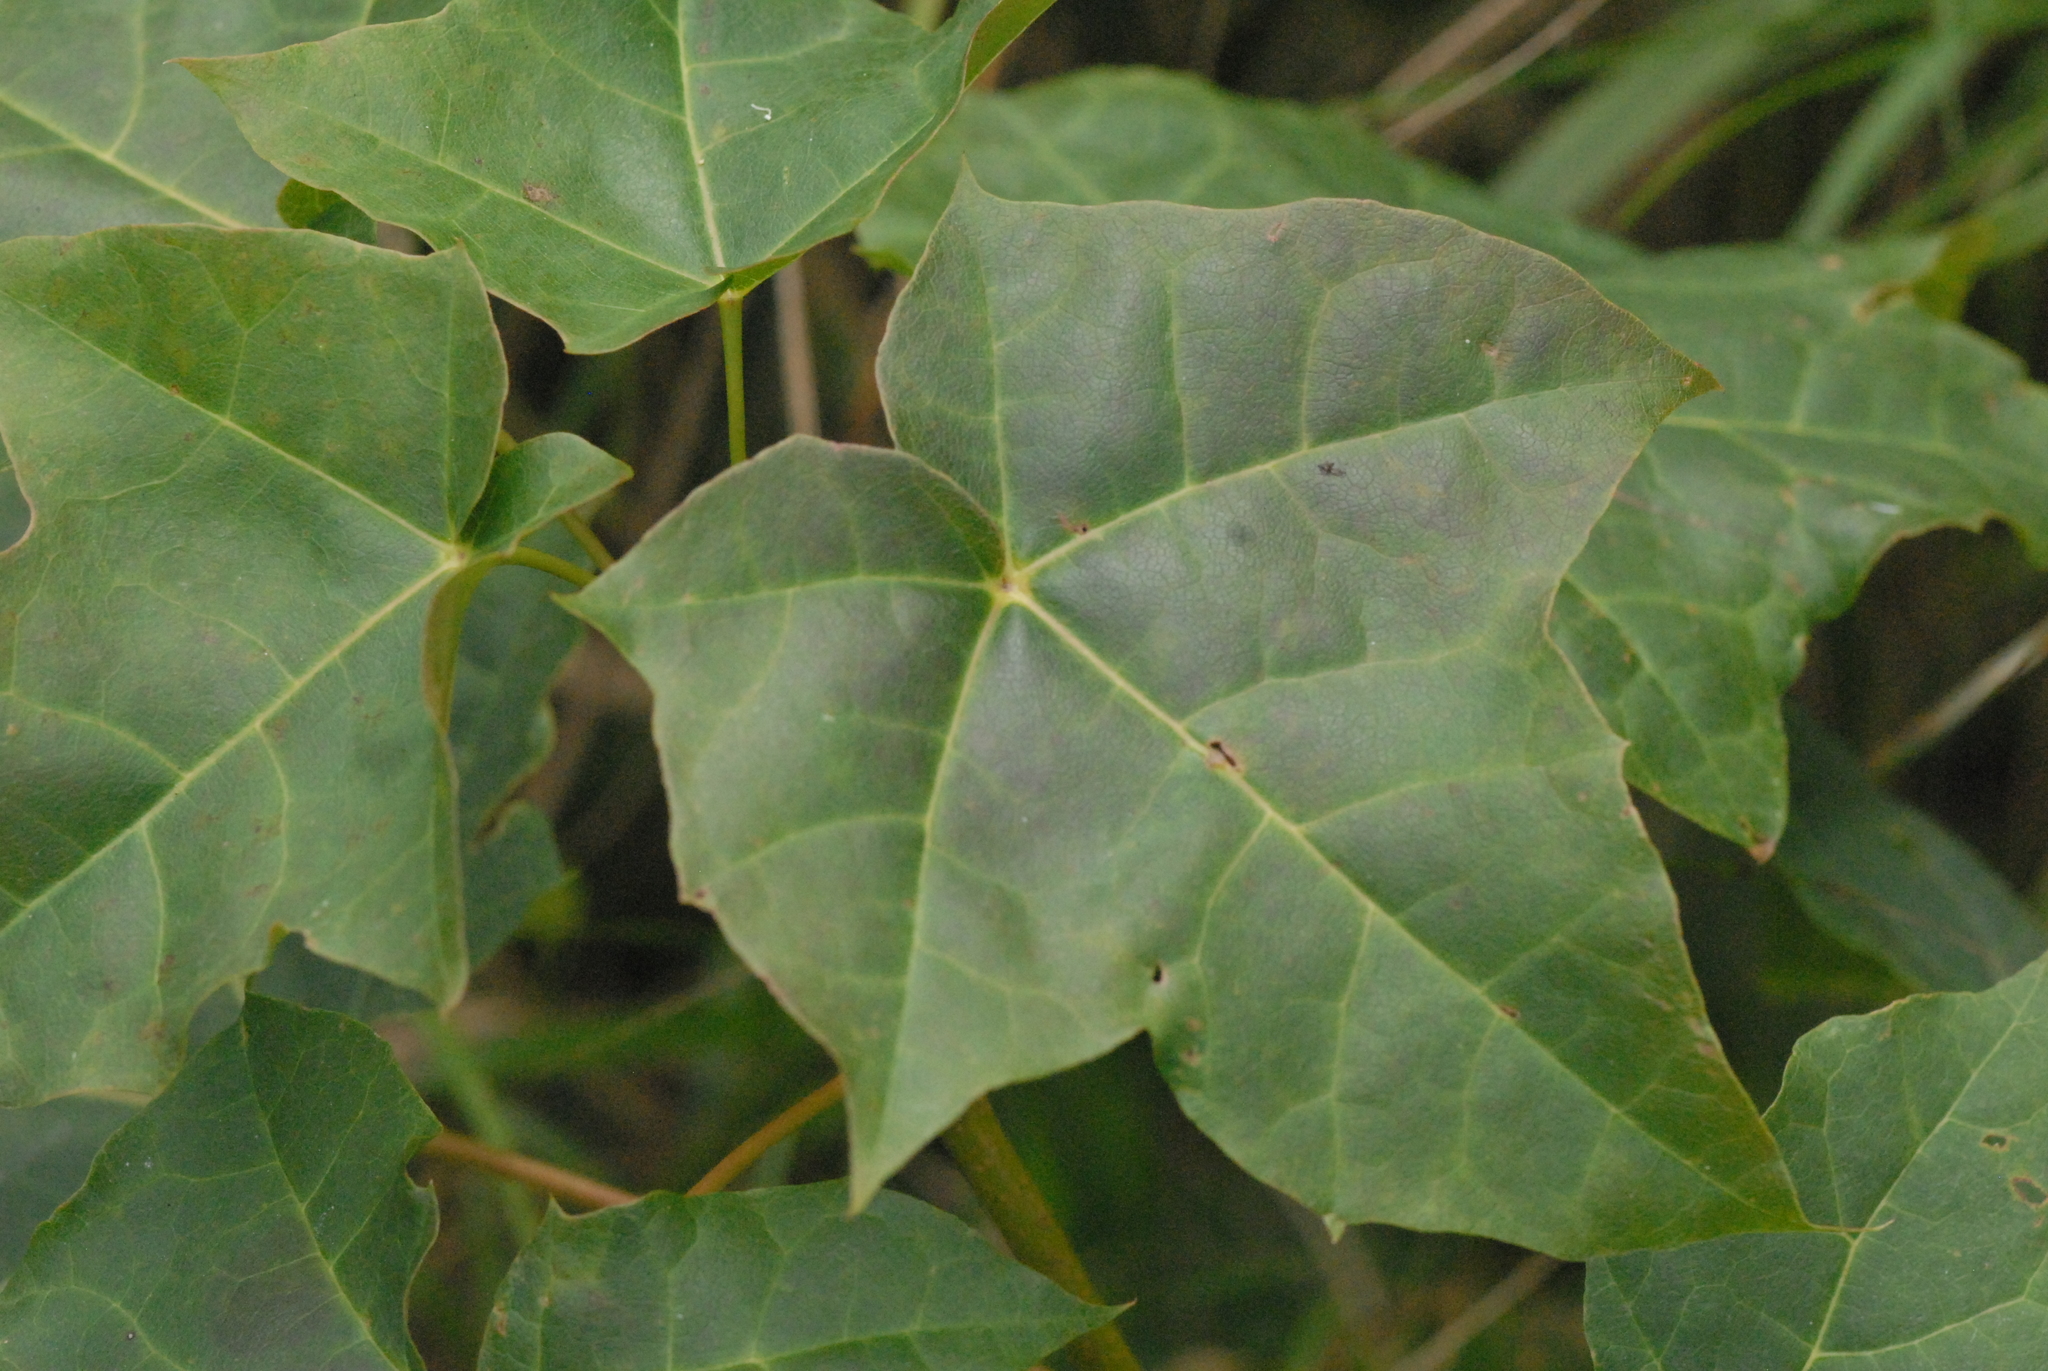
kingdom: Plantae
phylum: Tracheophyta
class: Magnoliopsida
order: Sapindales
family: Sapindaceae
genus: Acer
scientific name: Acer platanoides
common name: Norway maple
